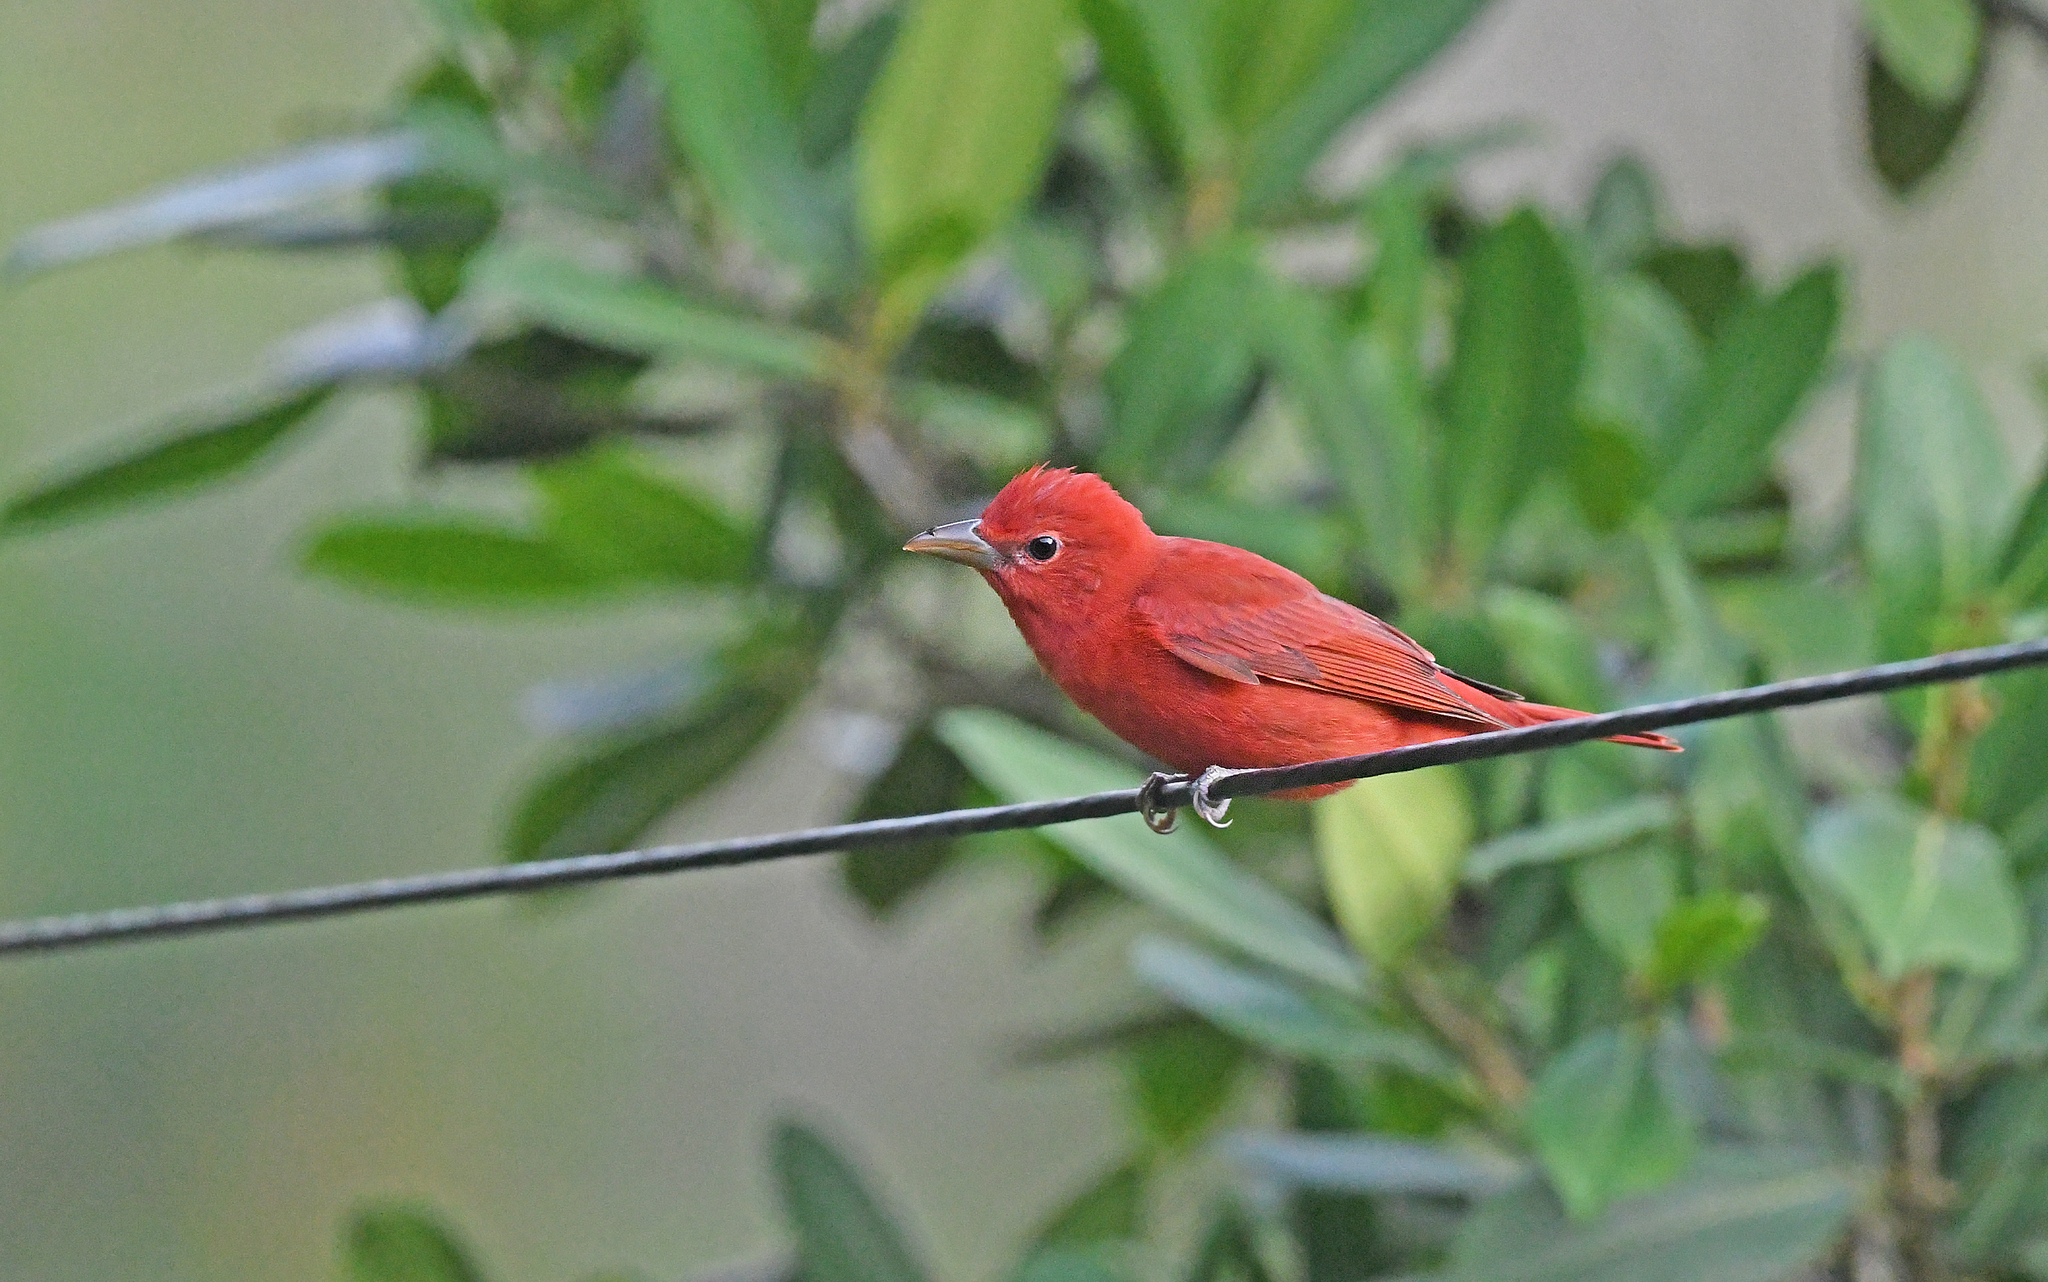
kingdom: Animalia
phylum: Chordata
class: Aves
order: Passeriformes
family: Cardinalidae
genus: Piranga
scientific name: Piranga rubra
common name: Summer tanager
